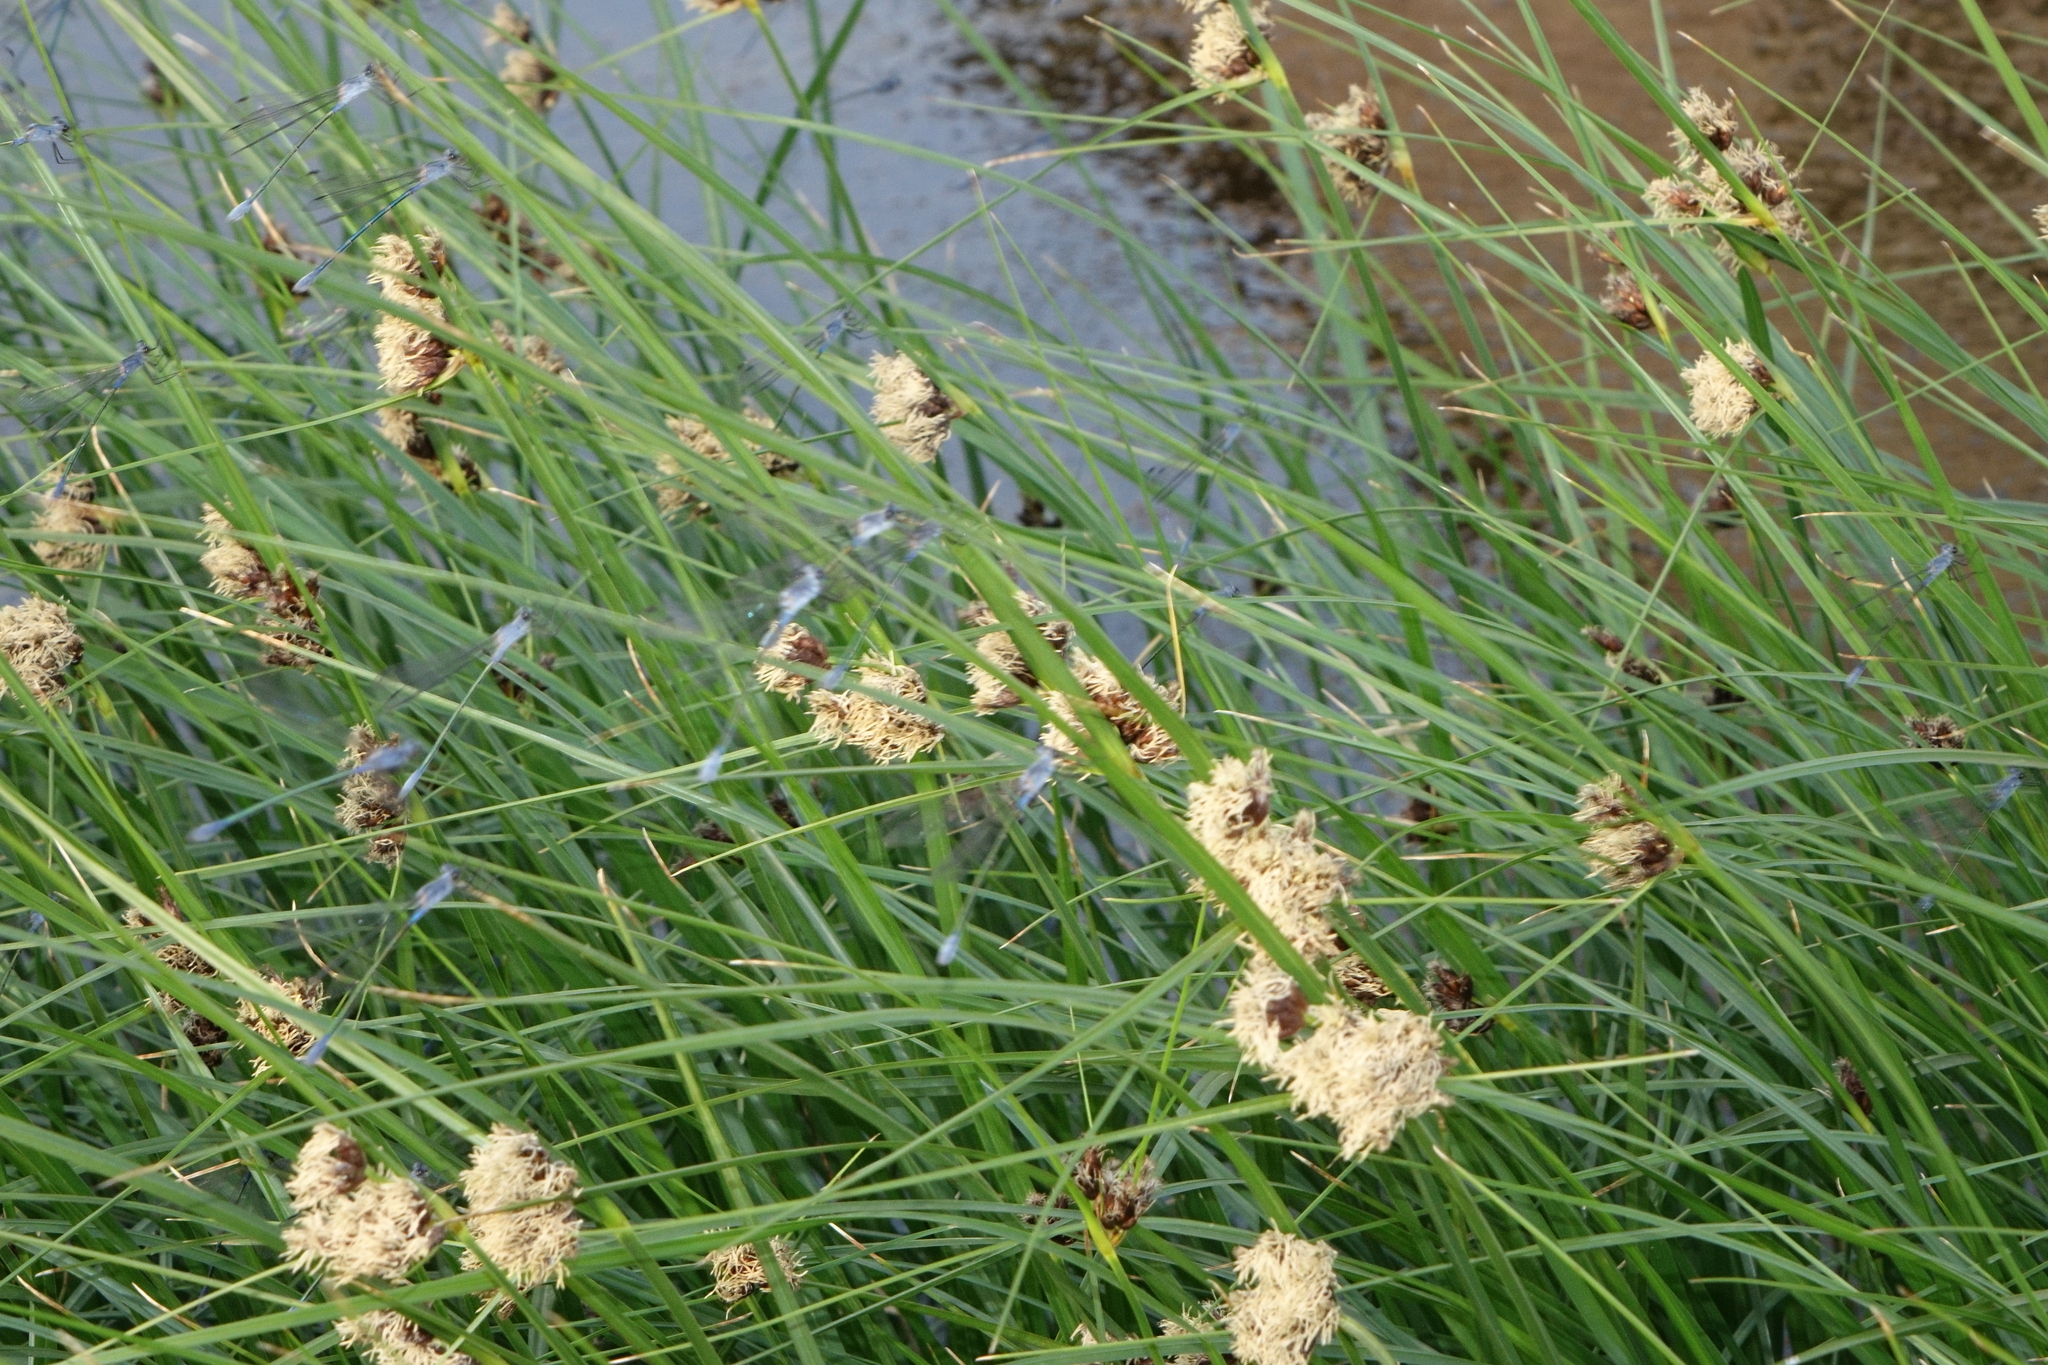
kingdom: Animalia
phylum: Arthropoda
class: Insecta
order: Odonata
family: Lestidae
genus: Lestes
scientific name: Lestes macrostigma
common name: Dark spreadwing
